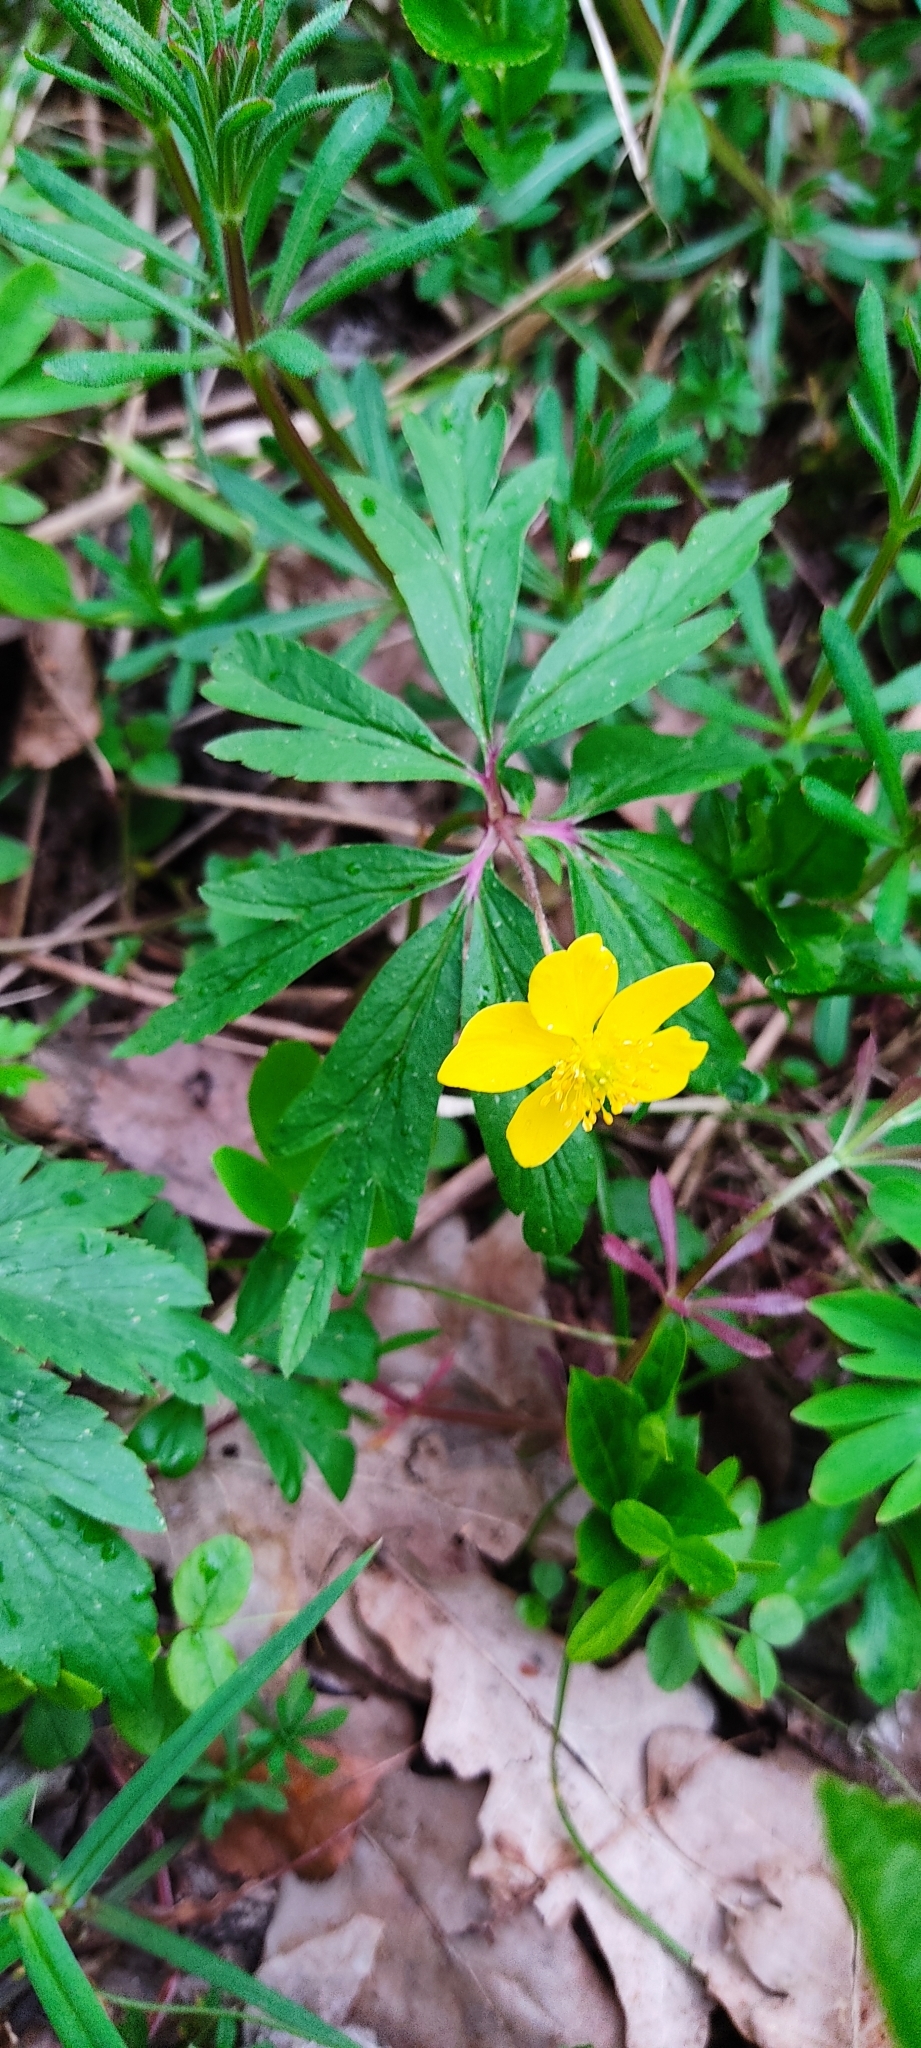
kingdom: Plantae
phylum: Tracheophyta
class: Magnoliopsida
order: Ranunculales
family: Ranunculaceae
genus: Anemone
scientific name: Anemone ranunculoides
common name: Yellow anemone
